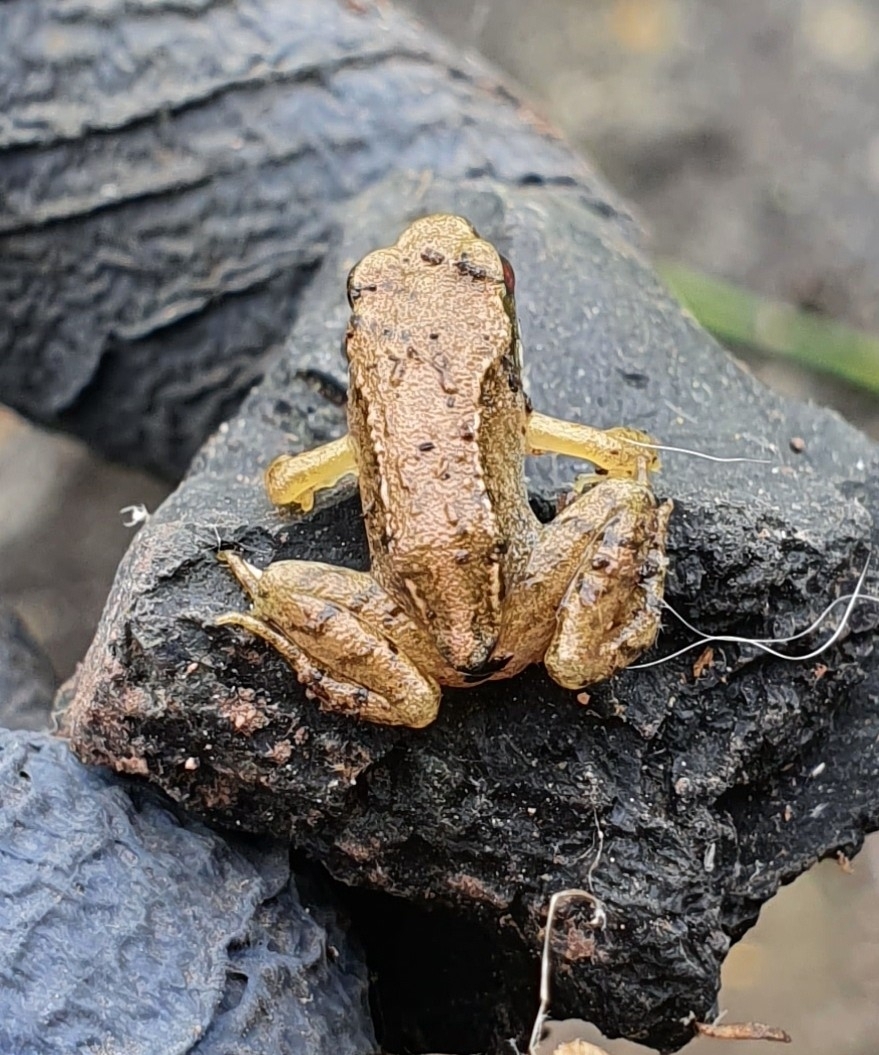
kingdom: Animalia
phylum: Chordata
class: Amphibia
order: Anura
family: Ranidae
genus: Rana
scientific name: Rana temporaria
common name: Common frog
